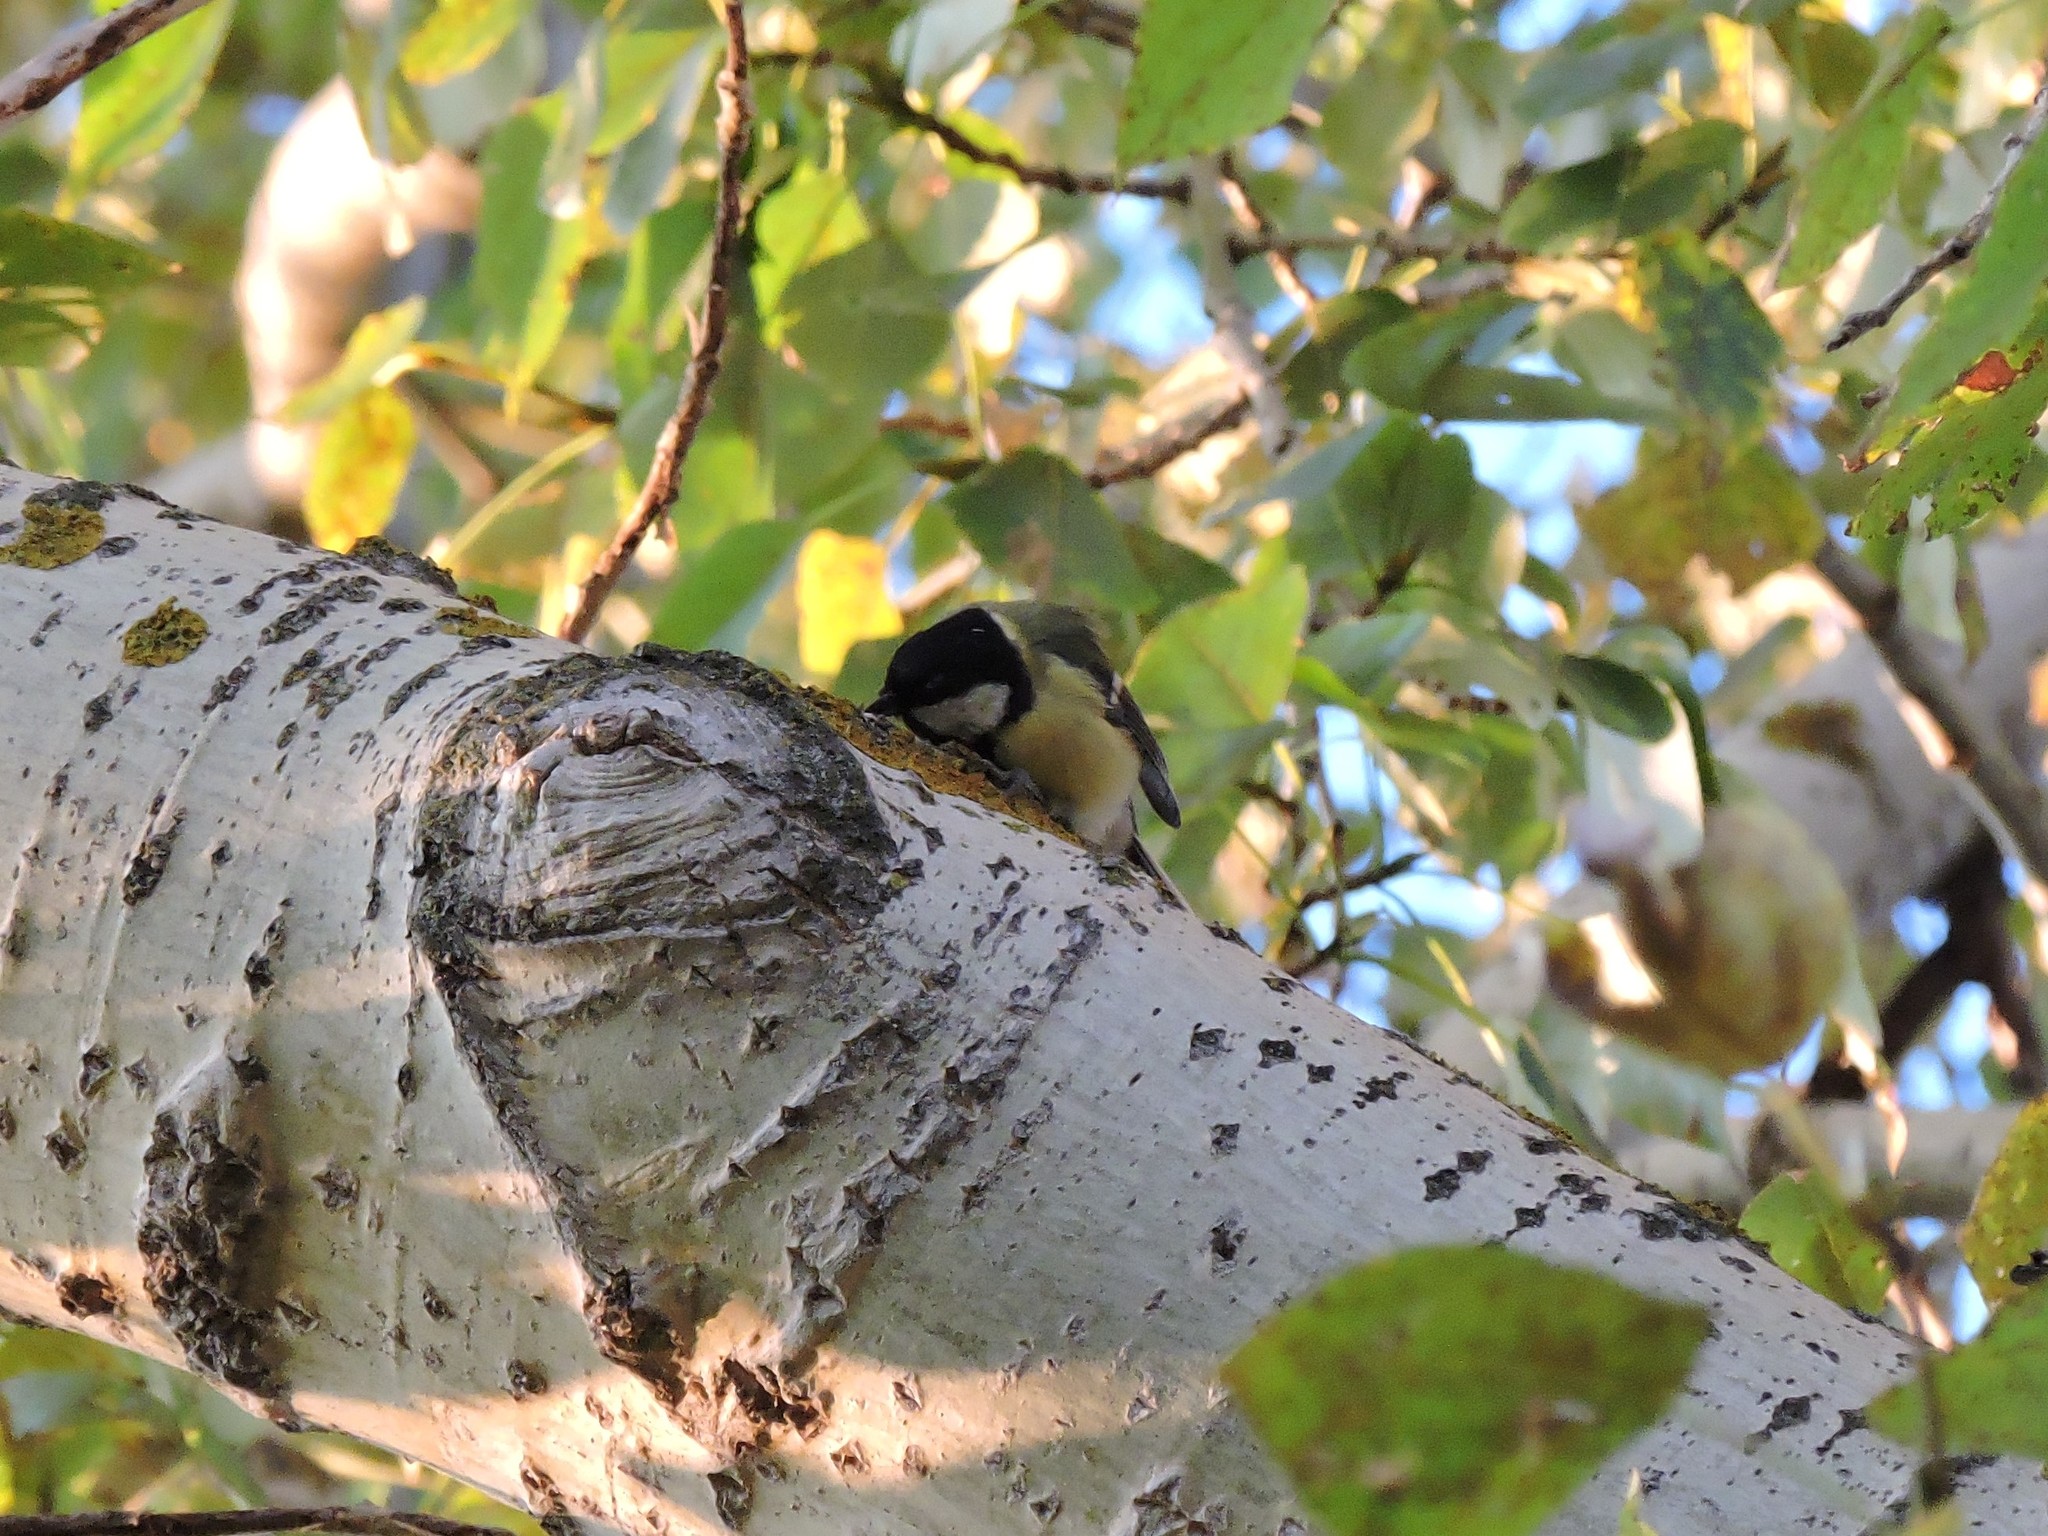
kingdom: Animalia
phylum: Chordata
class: Aves
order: Passeriformes
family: Paridae
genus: Parus
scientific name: Parus major
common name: Great tit
